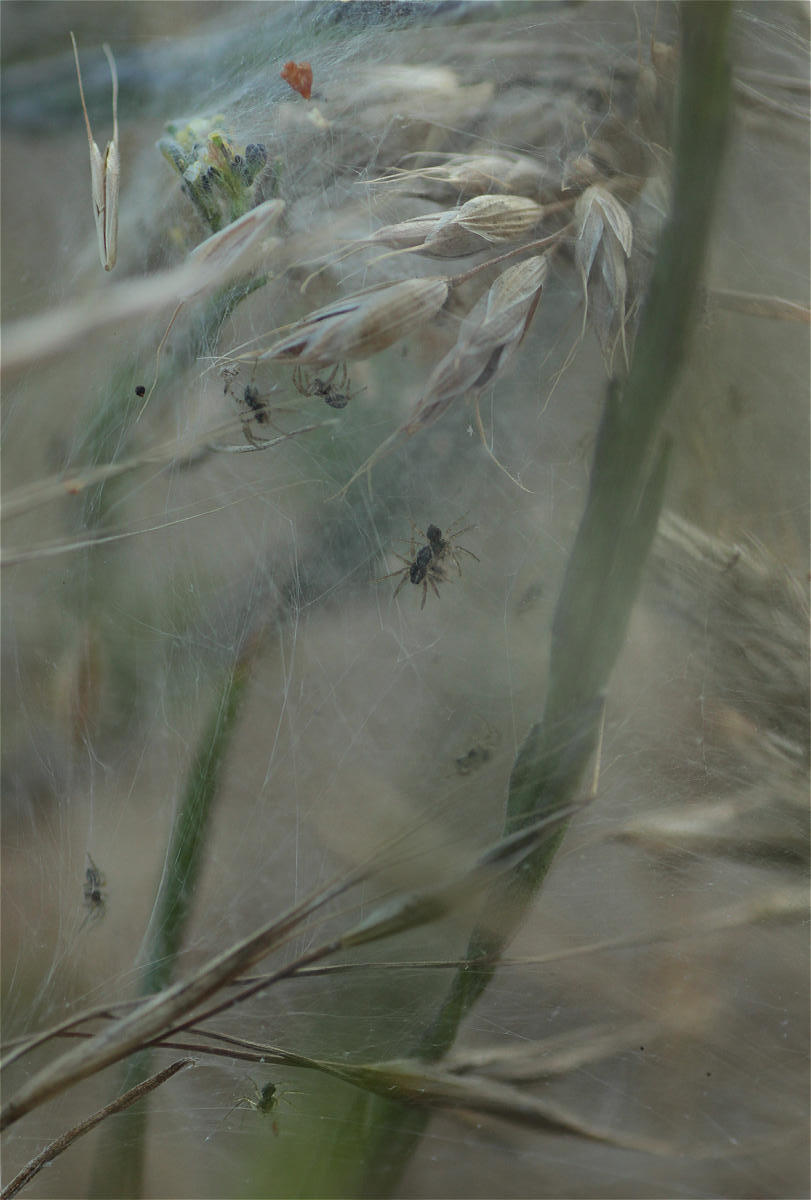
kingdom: Animalia
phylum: Arthropoda
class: Arachnida
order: Araneae
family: Pisauridae
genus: Pisaura
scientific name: Pisaura mirabilis
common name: Tent spider
